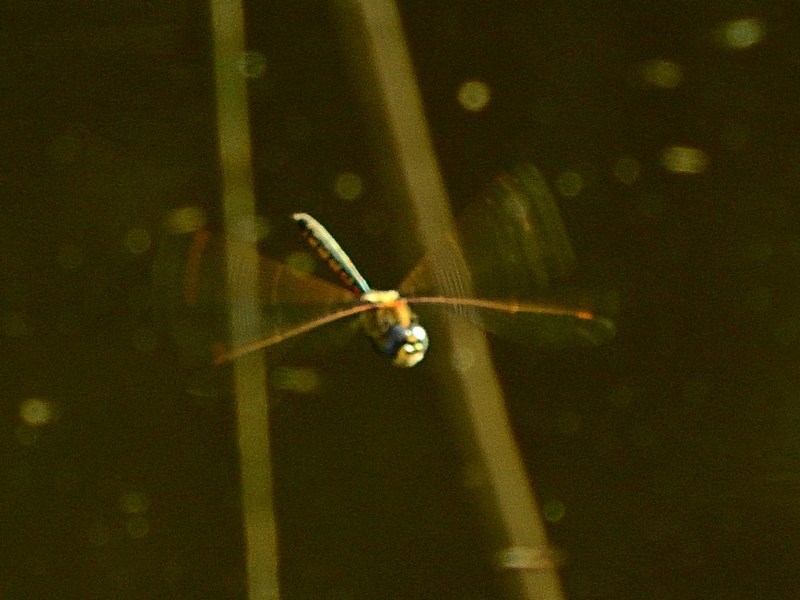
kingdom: Animalia
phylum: Arthropoda
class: Insecta
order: Odonata
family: Corduliidae
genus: Hemicordulia
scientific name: Hemicordulia tau
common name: Tau emerald
